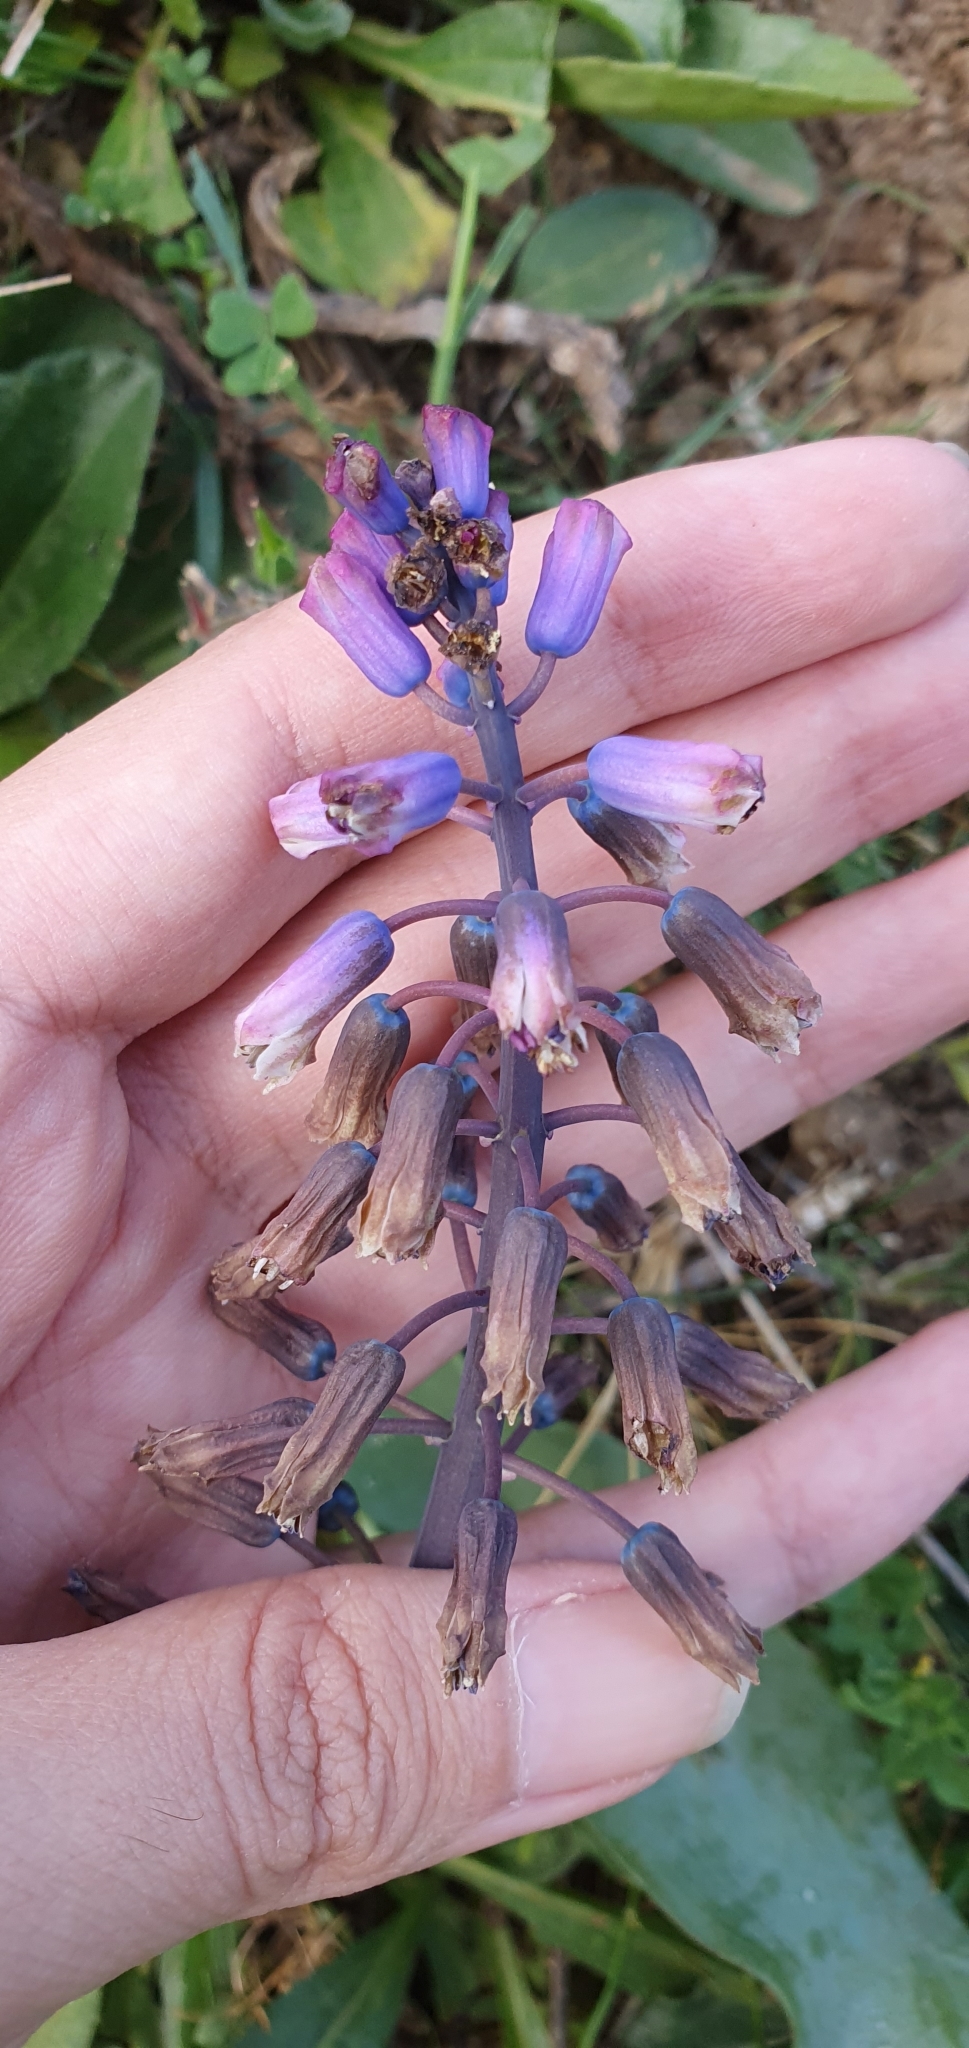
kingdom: Plantae
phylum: Tracheophyta
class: Liliopsida
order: Asparagales
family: Asparagaceae
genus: Bellevalia
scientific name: Bellevalia mauritanica
